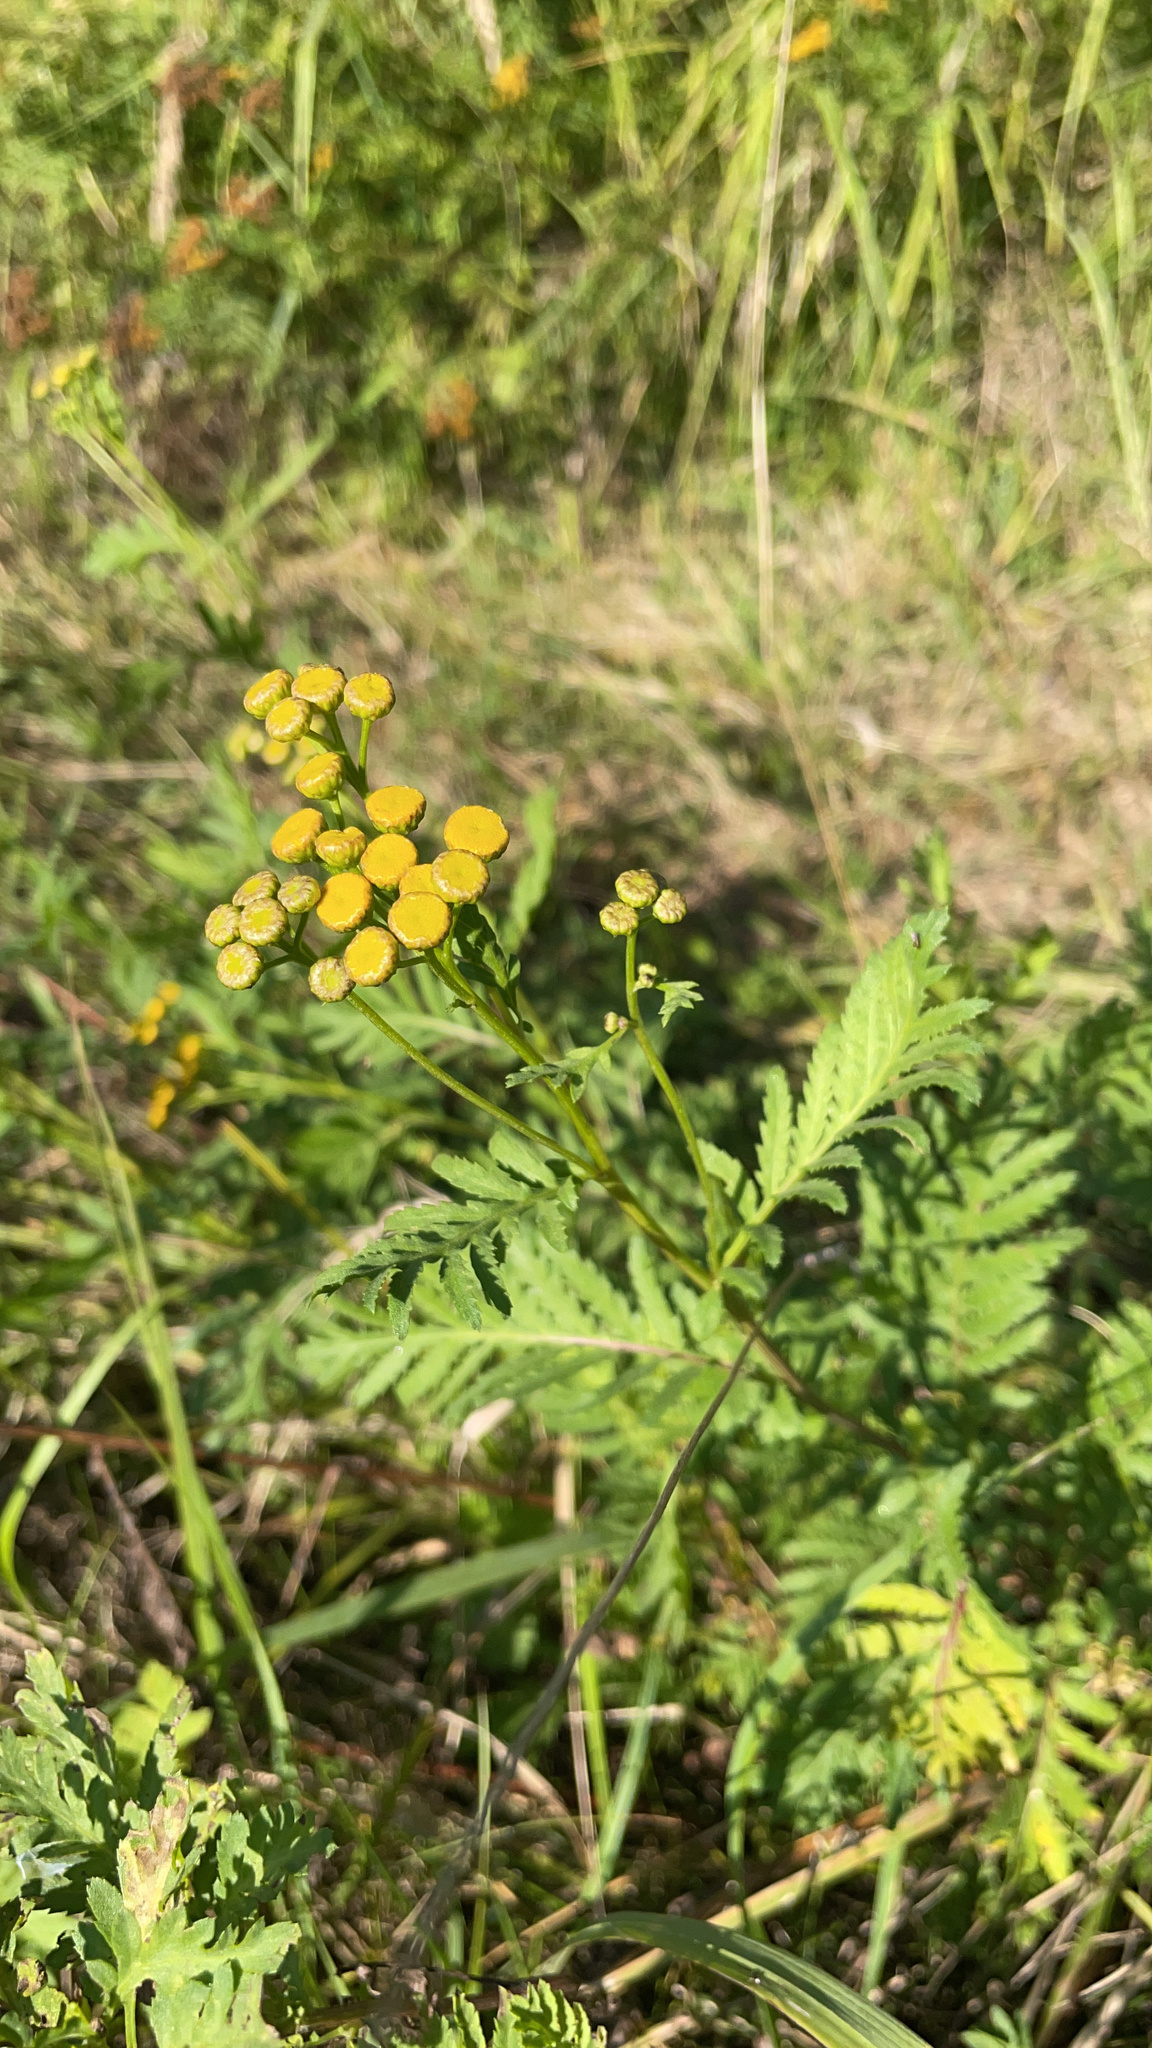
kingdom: Plantae
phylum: Tracheophyta
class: Magnoliopsida
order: Asterales
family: Asteraceae
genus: Tanacetum
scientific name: Tanacetum vulgare
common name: Common tansy
